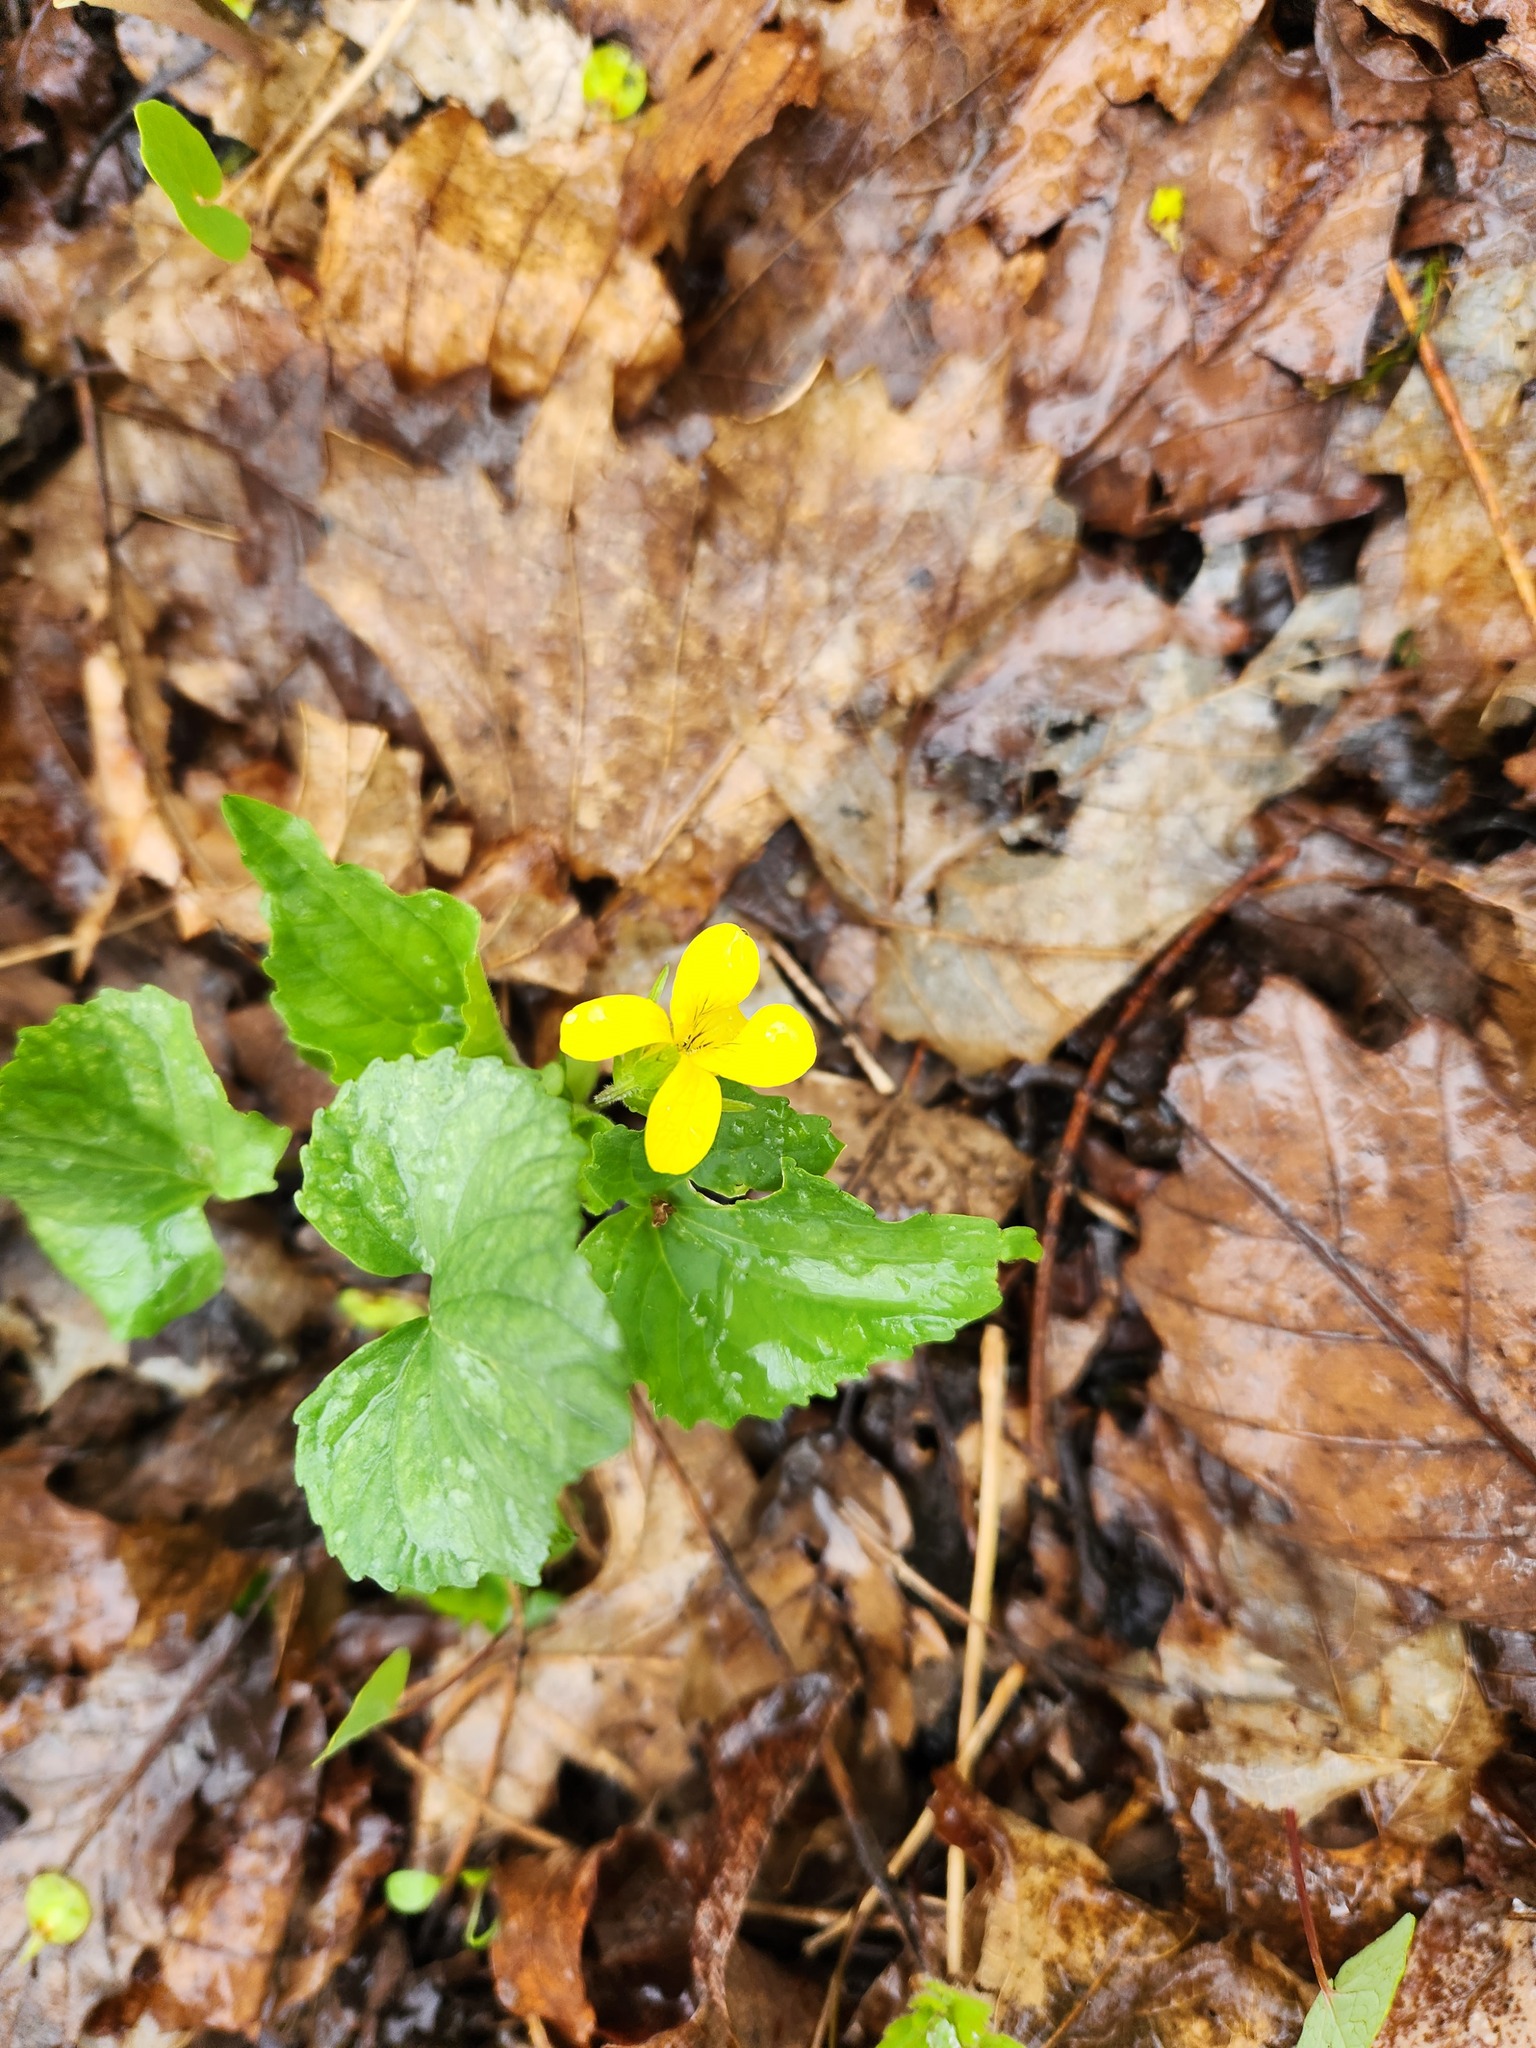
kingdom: Plantae
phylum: Tracheophyta
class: Magnoliopsida
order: Malpighiales
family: Violaceae
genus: Viola
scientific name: Viola eriocarpa
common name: Smooth yellow violet
